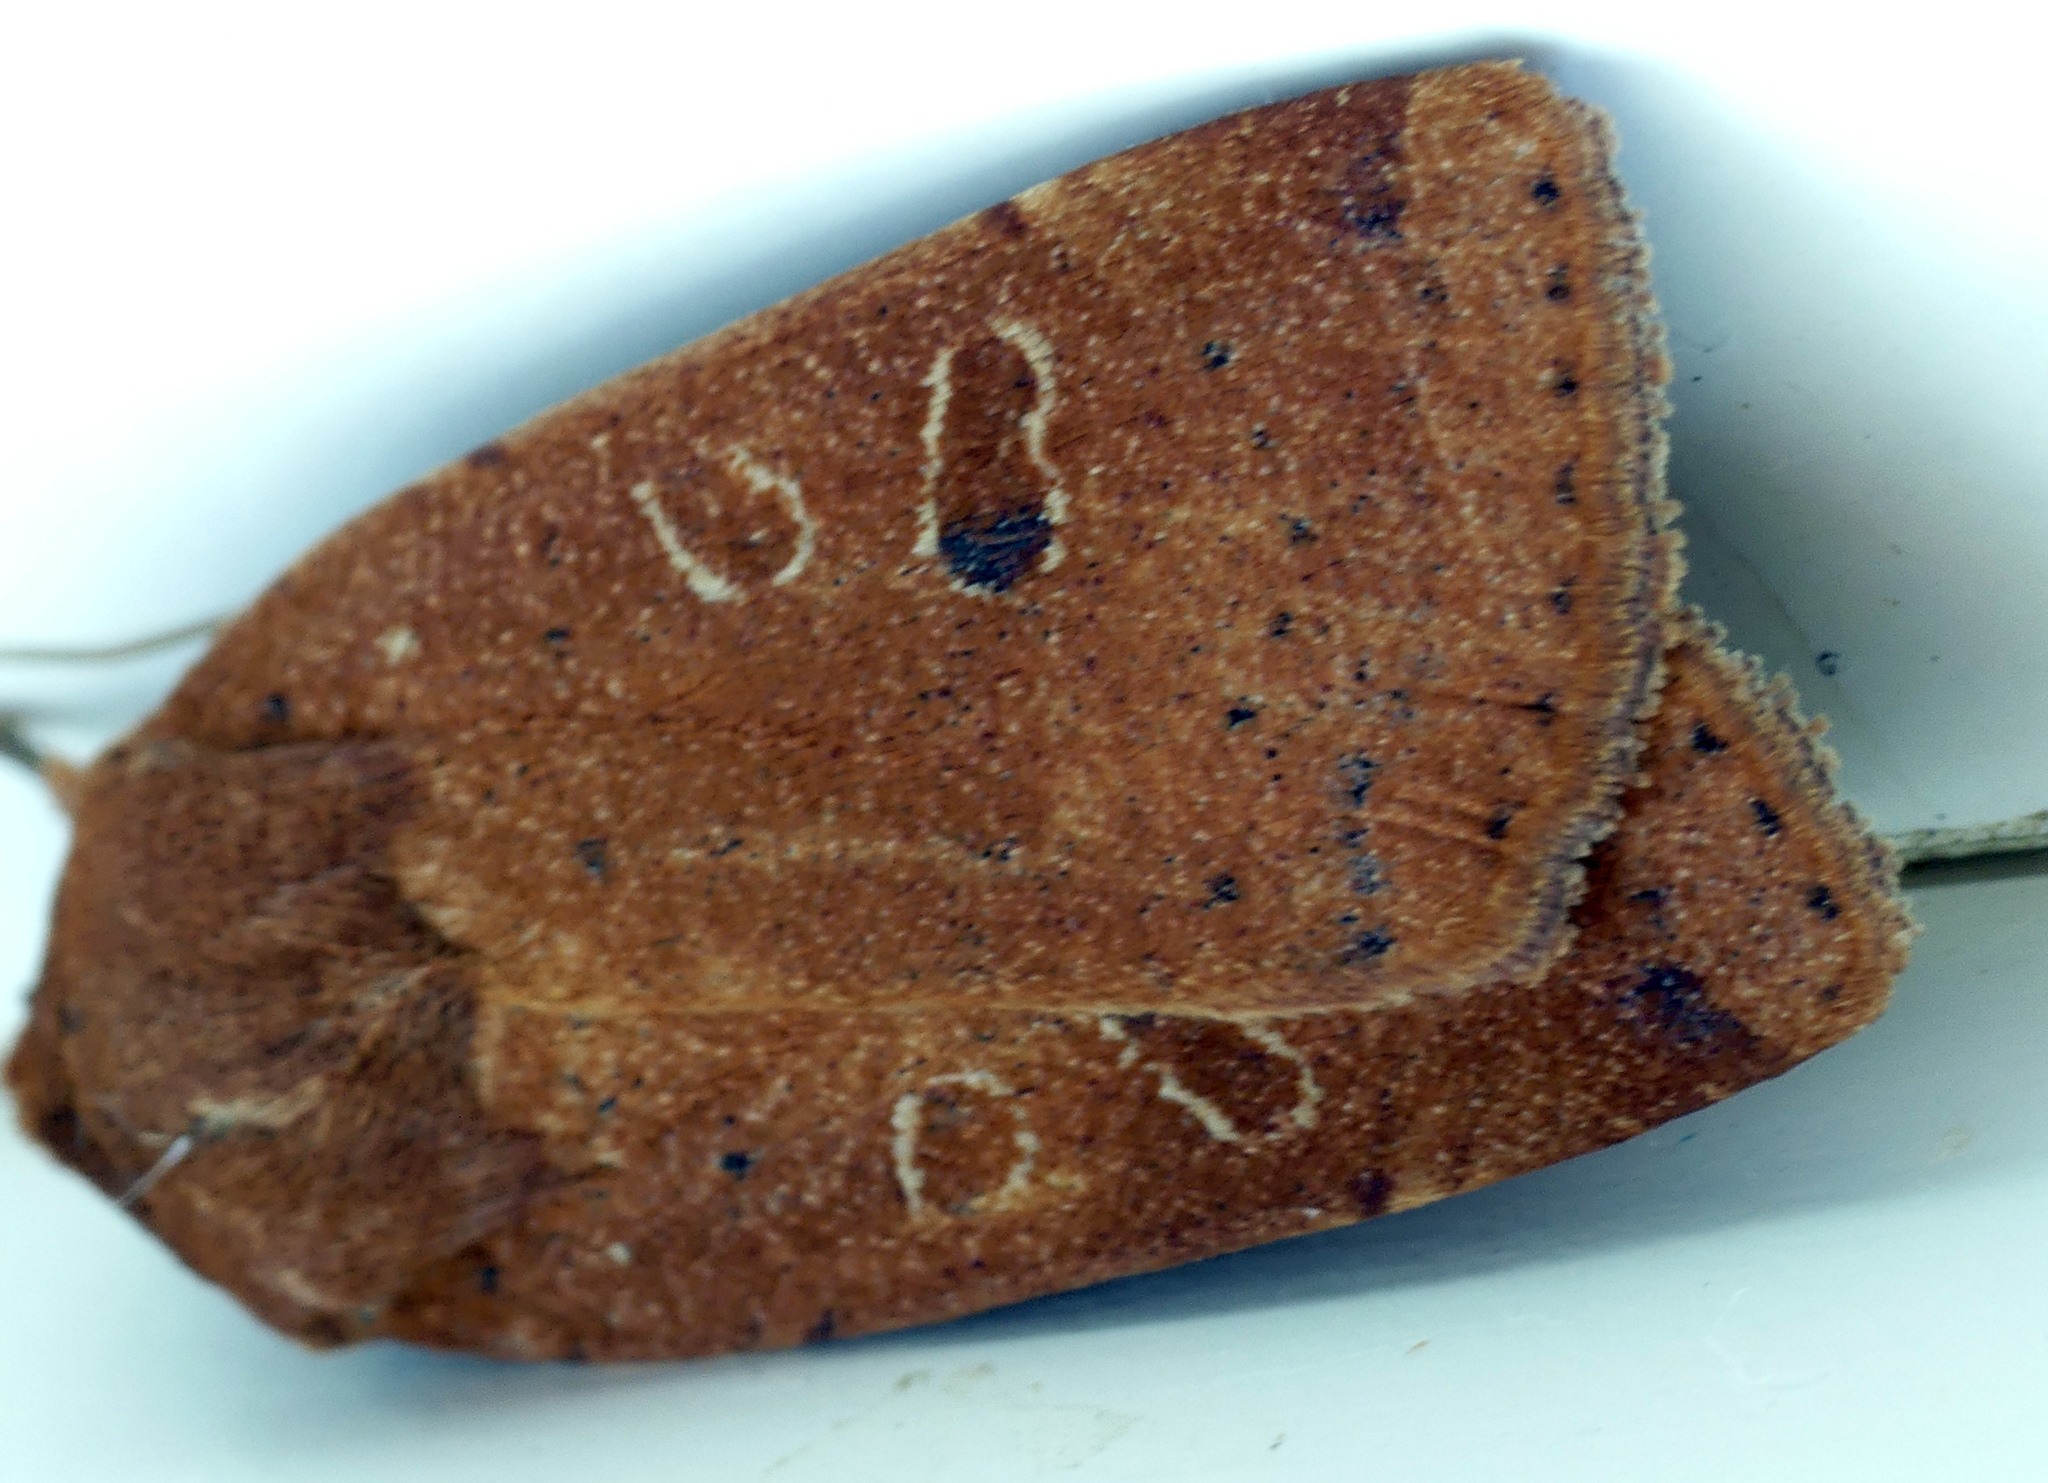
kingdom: Animalia
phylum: Arthropoda
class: Insecta
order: Lepidoptera
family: Noctuidae
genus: Noctua
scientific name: Noctua comes
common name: Lesser yellow underwing
